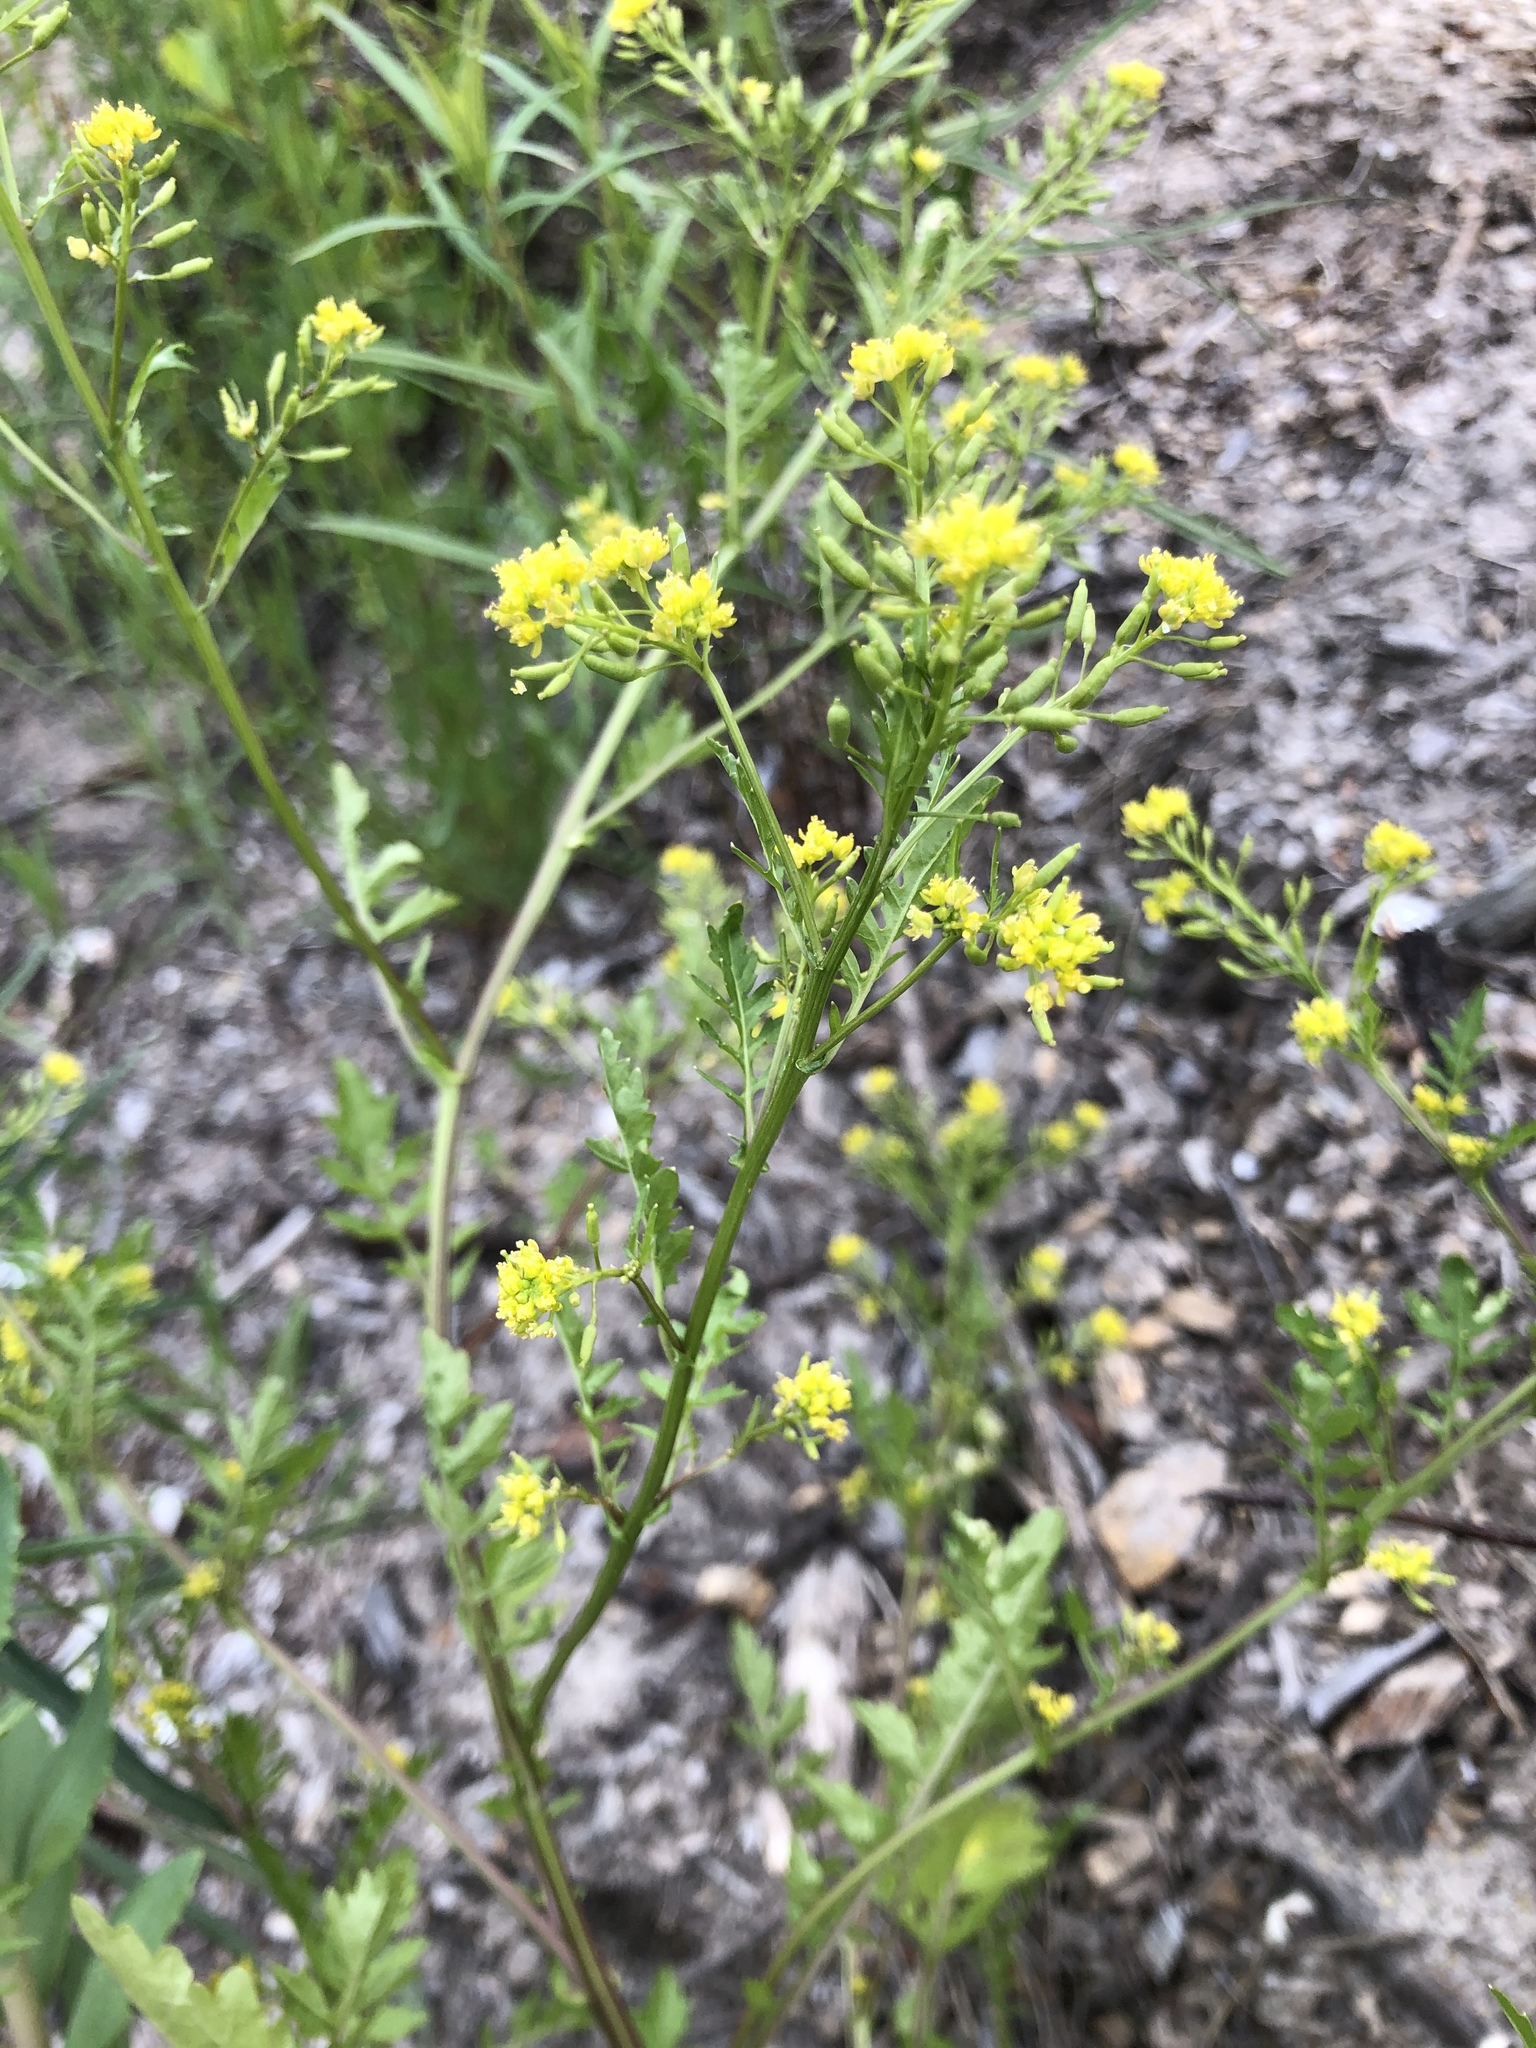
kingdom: Plantae
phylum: Tracheophyta
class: Magnoliopsida
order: Brassicales
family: Brassicaceae
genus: Rorippa
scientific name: Rorippa palustris
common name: Marsh yellow-cress
